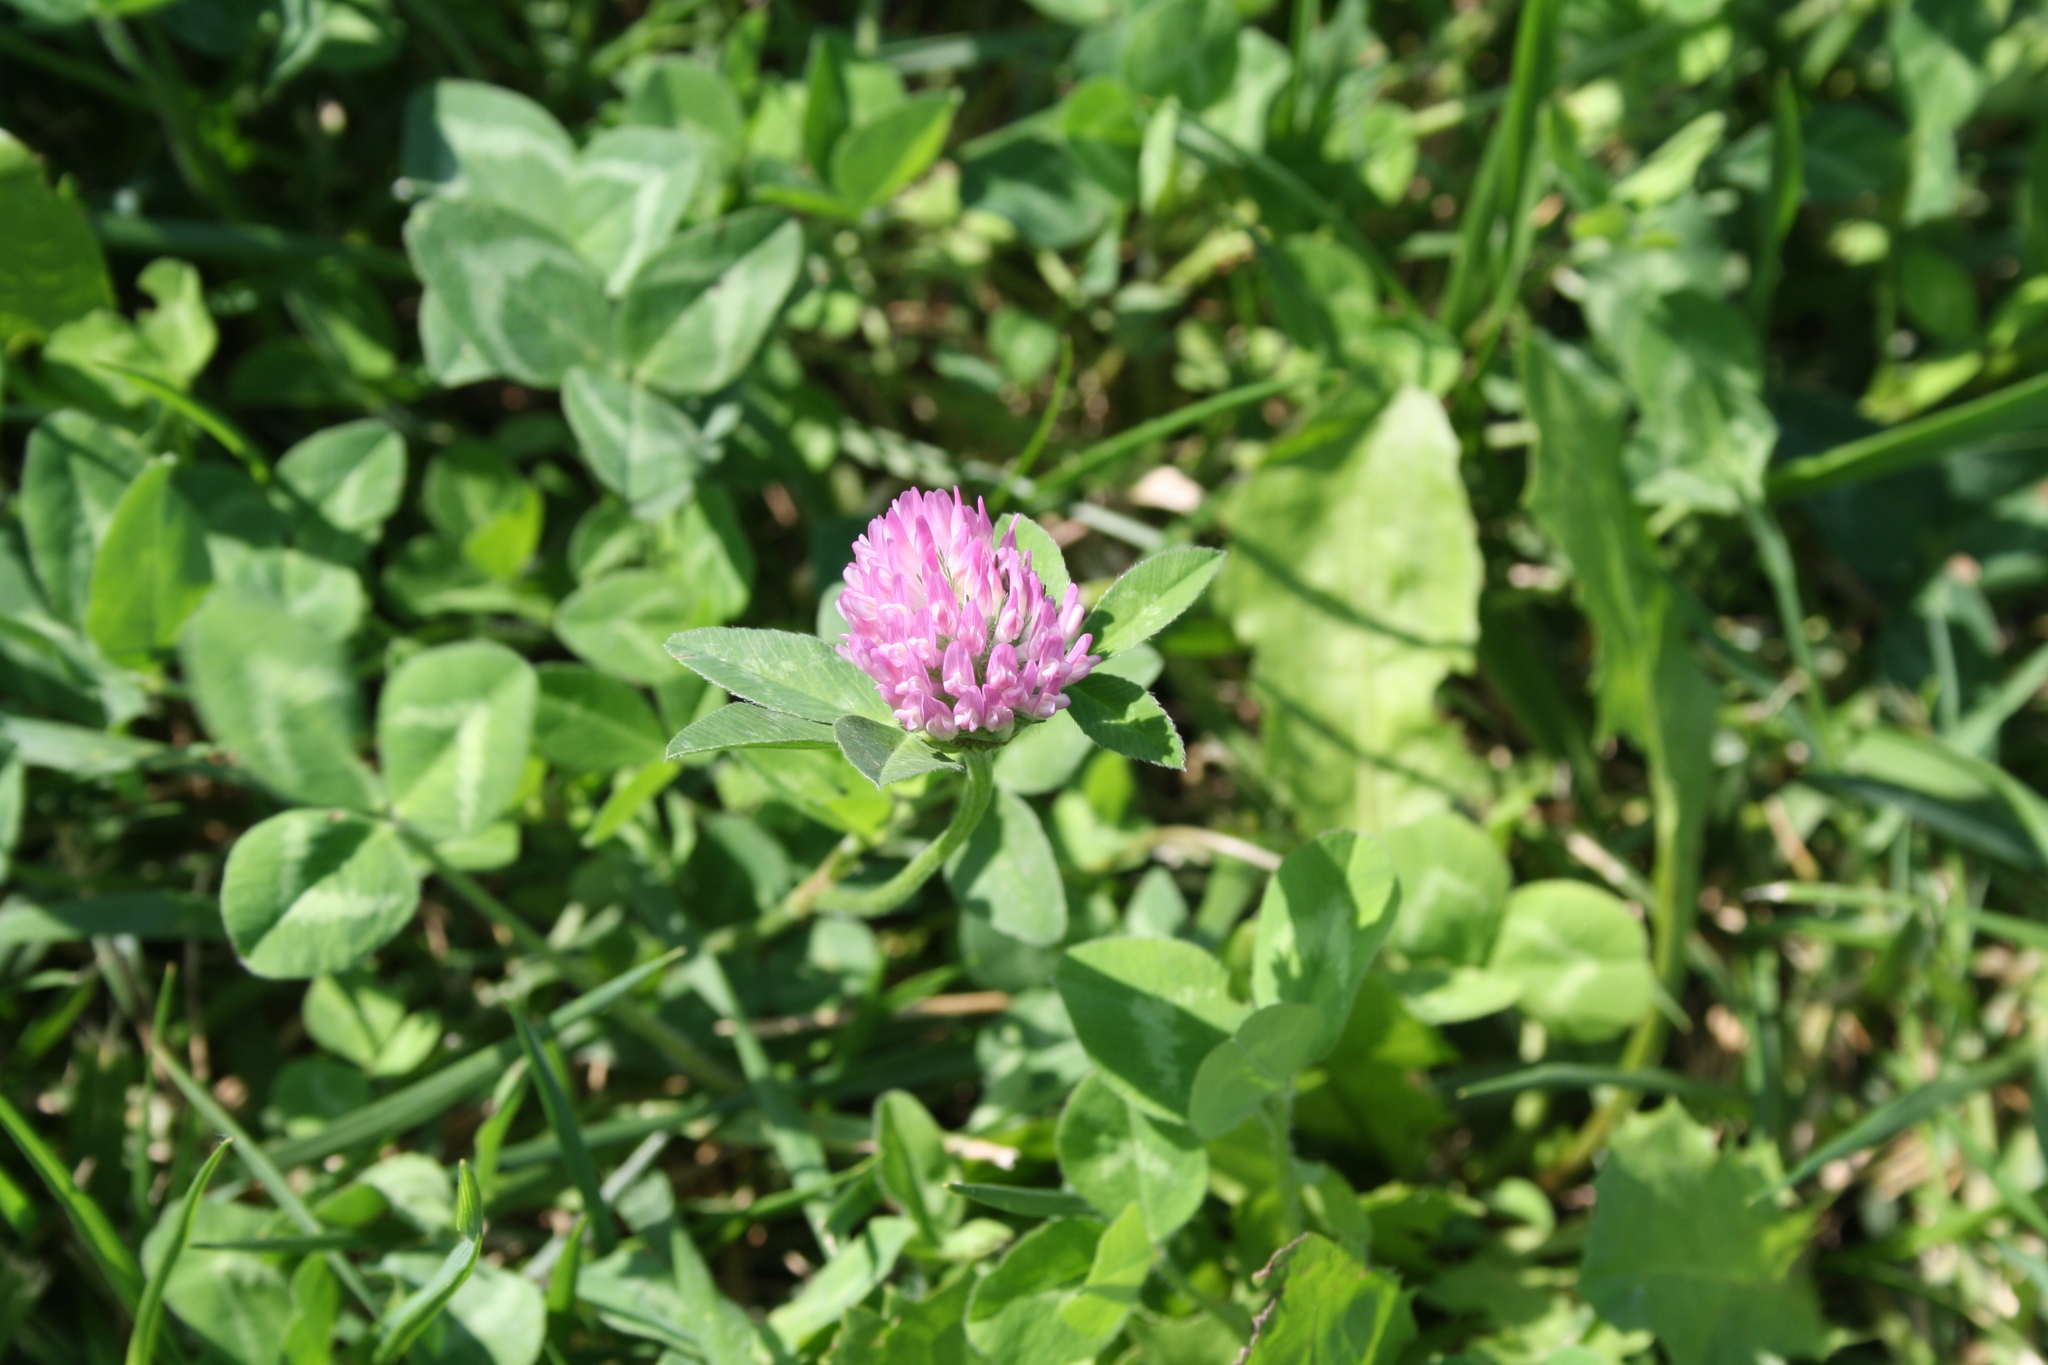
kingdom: Plantae
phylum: Tracheophyta
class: Magnoliopsida
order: Fabales
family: Fabaceae
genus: Trifolium
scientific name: Trifolium pratense
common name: Red clover
